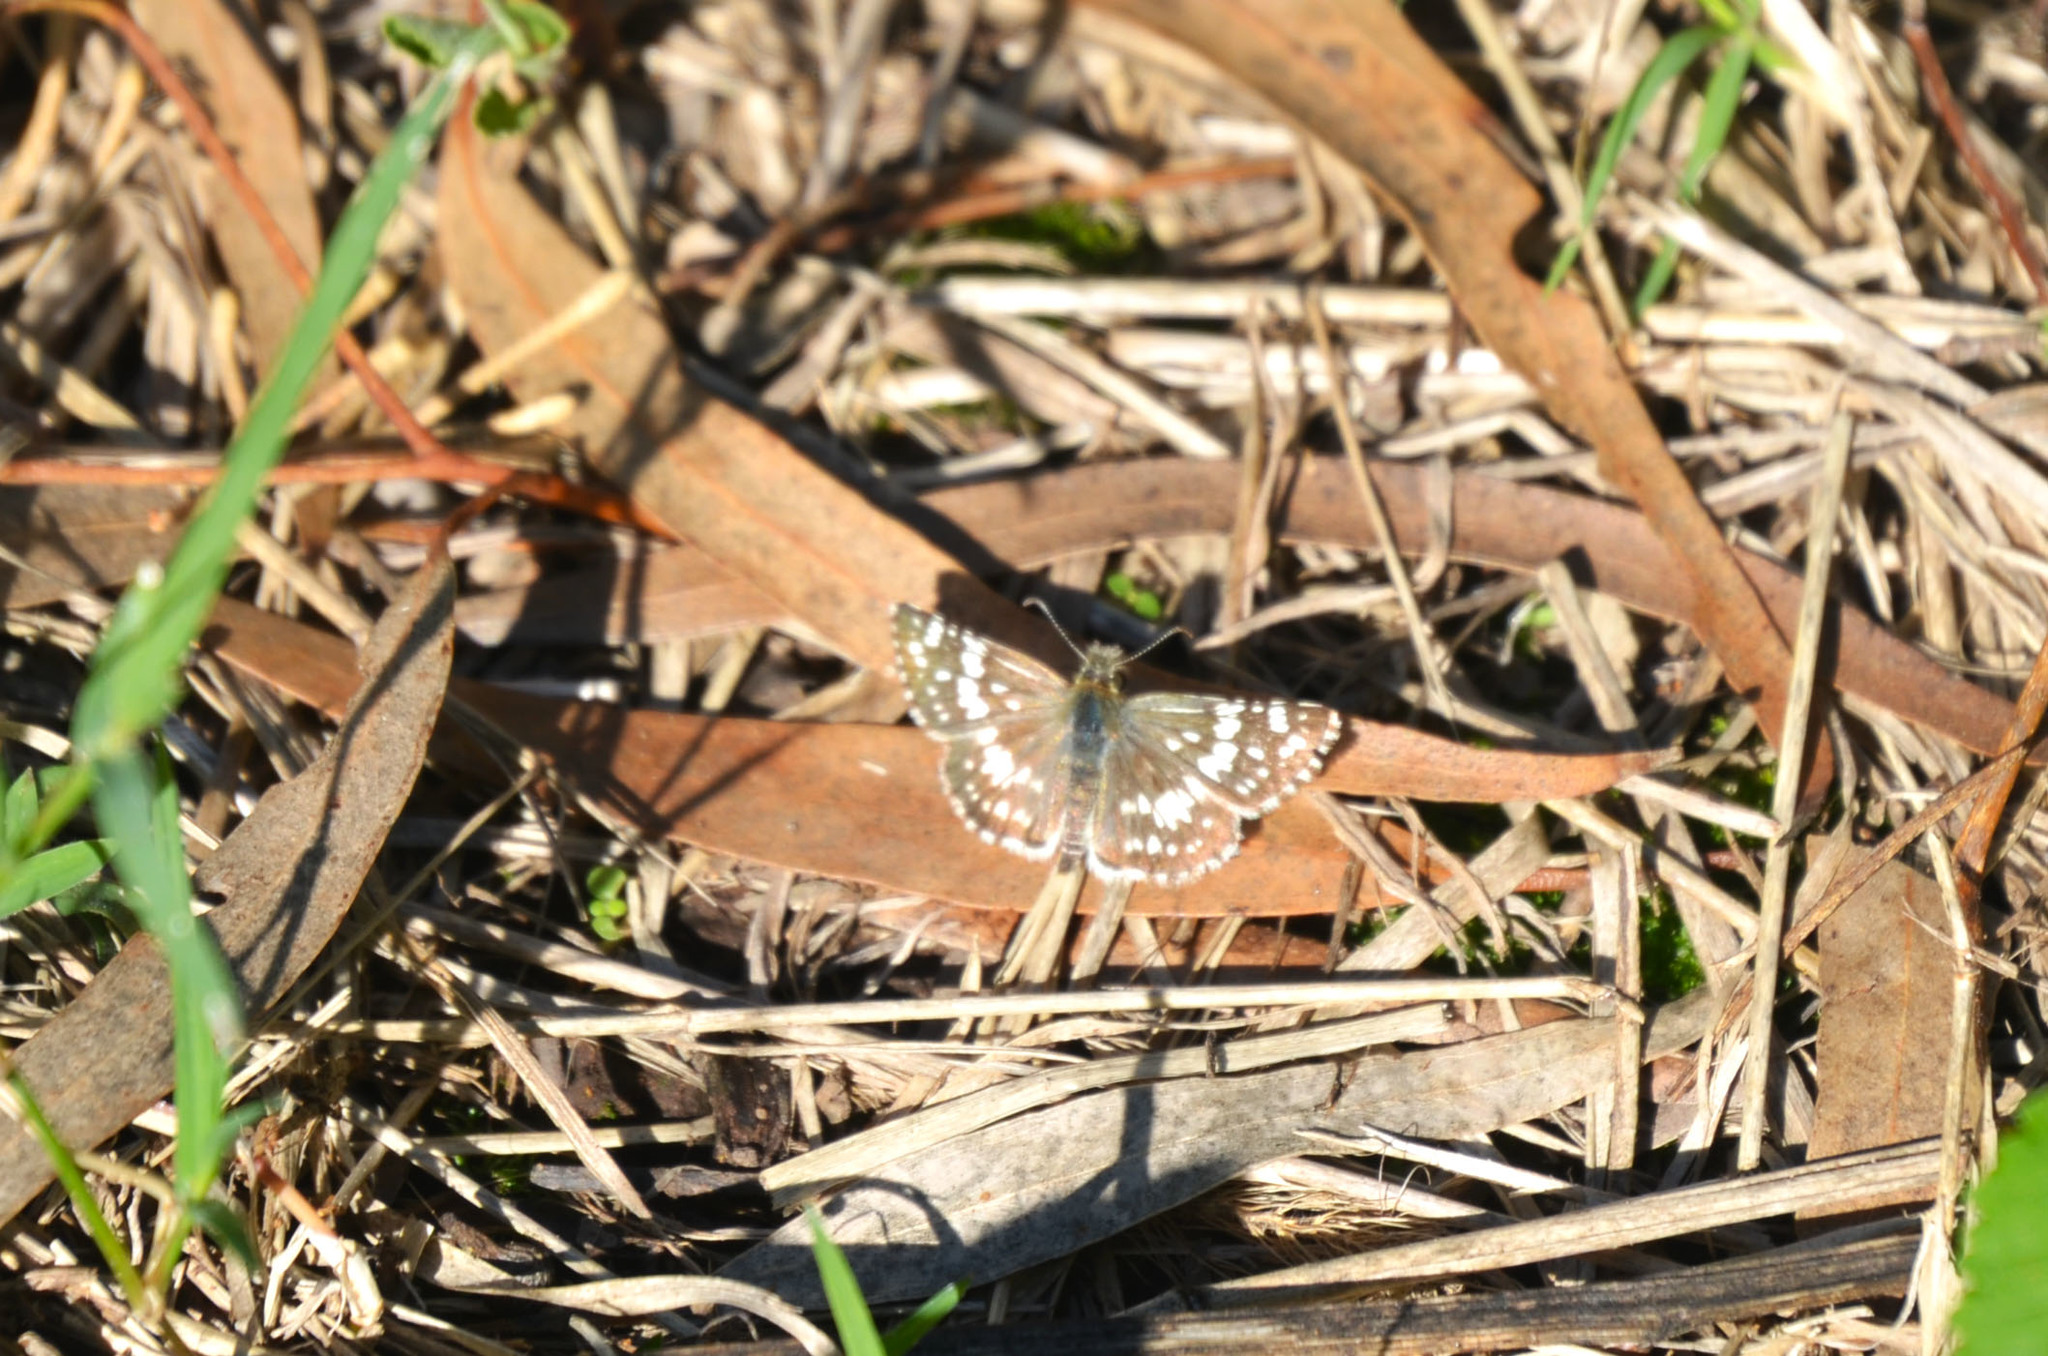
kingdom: Animalia
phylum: Arthropoda
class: Insecta
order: Lepidoptera
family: Hesperiidae
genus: Burnsius
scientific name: Burnsius orcynoides
